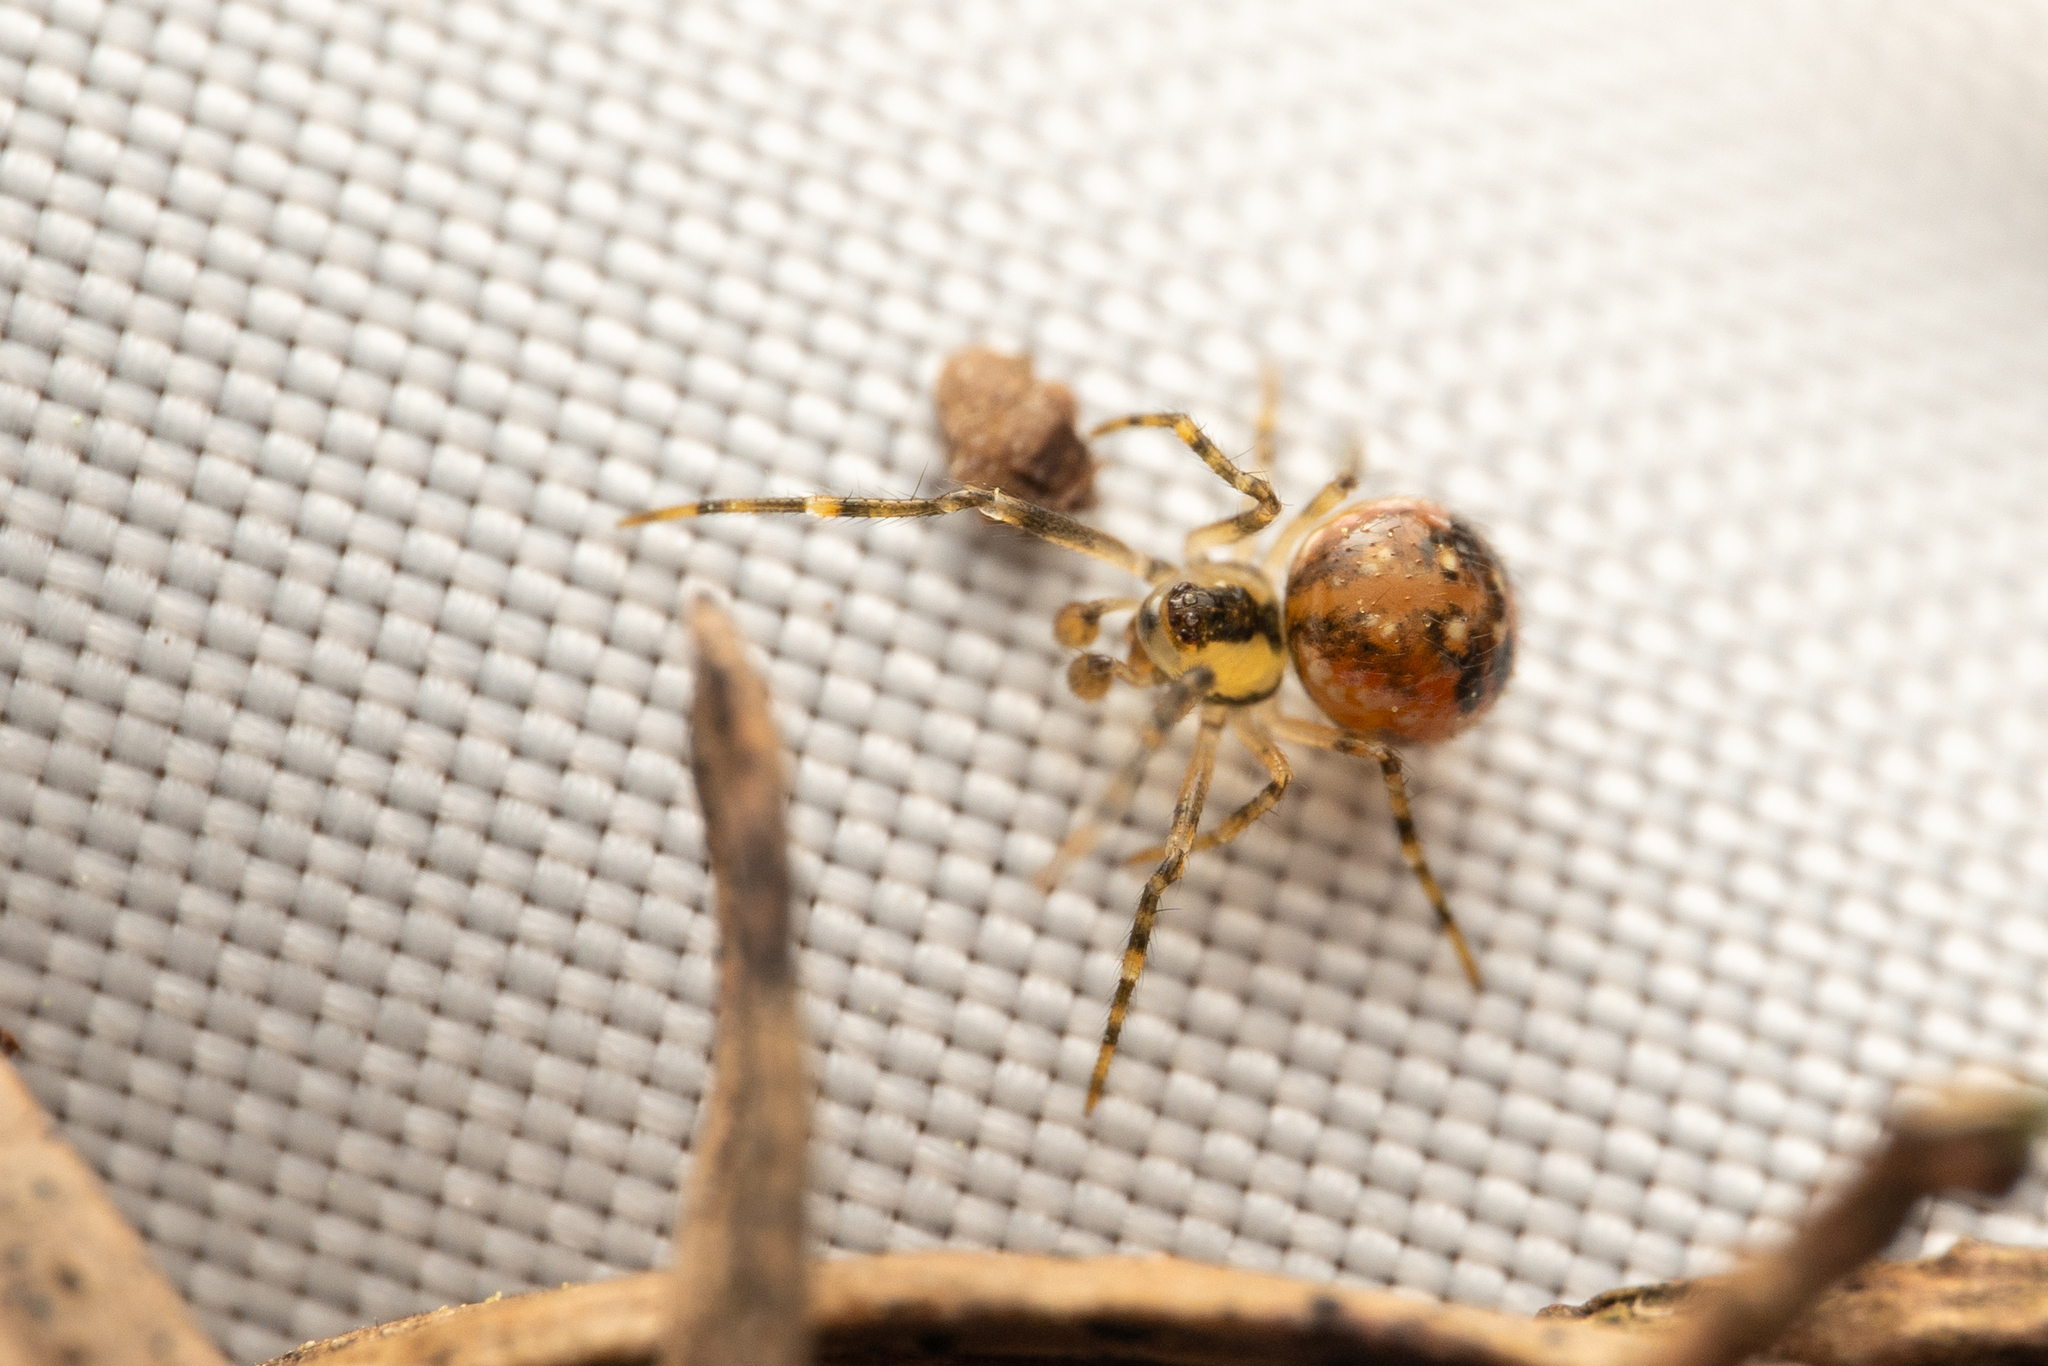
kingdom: Animalia
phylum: Arthropoda
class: Arachnida
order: Araneae
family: Theridiidae
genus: Rugathodes
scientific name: Rugathodes sexpunctatus
